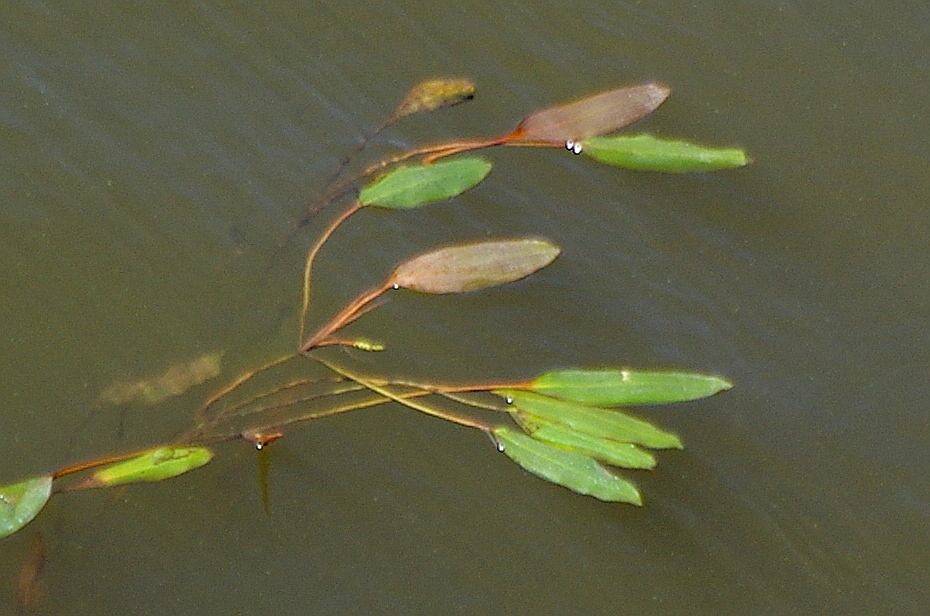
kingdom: Plantae
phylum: Tracheophyta
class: Liliopsida
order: Alismatales
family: Potamogetonaceae
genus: Potamogeton
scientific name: Potamogeton nodosus
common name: Loddon pondweed
